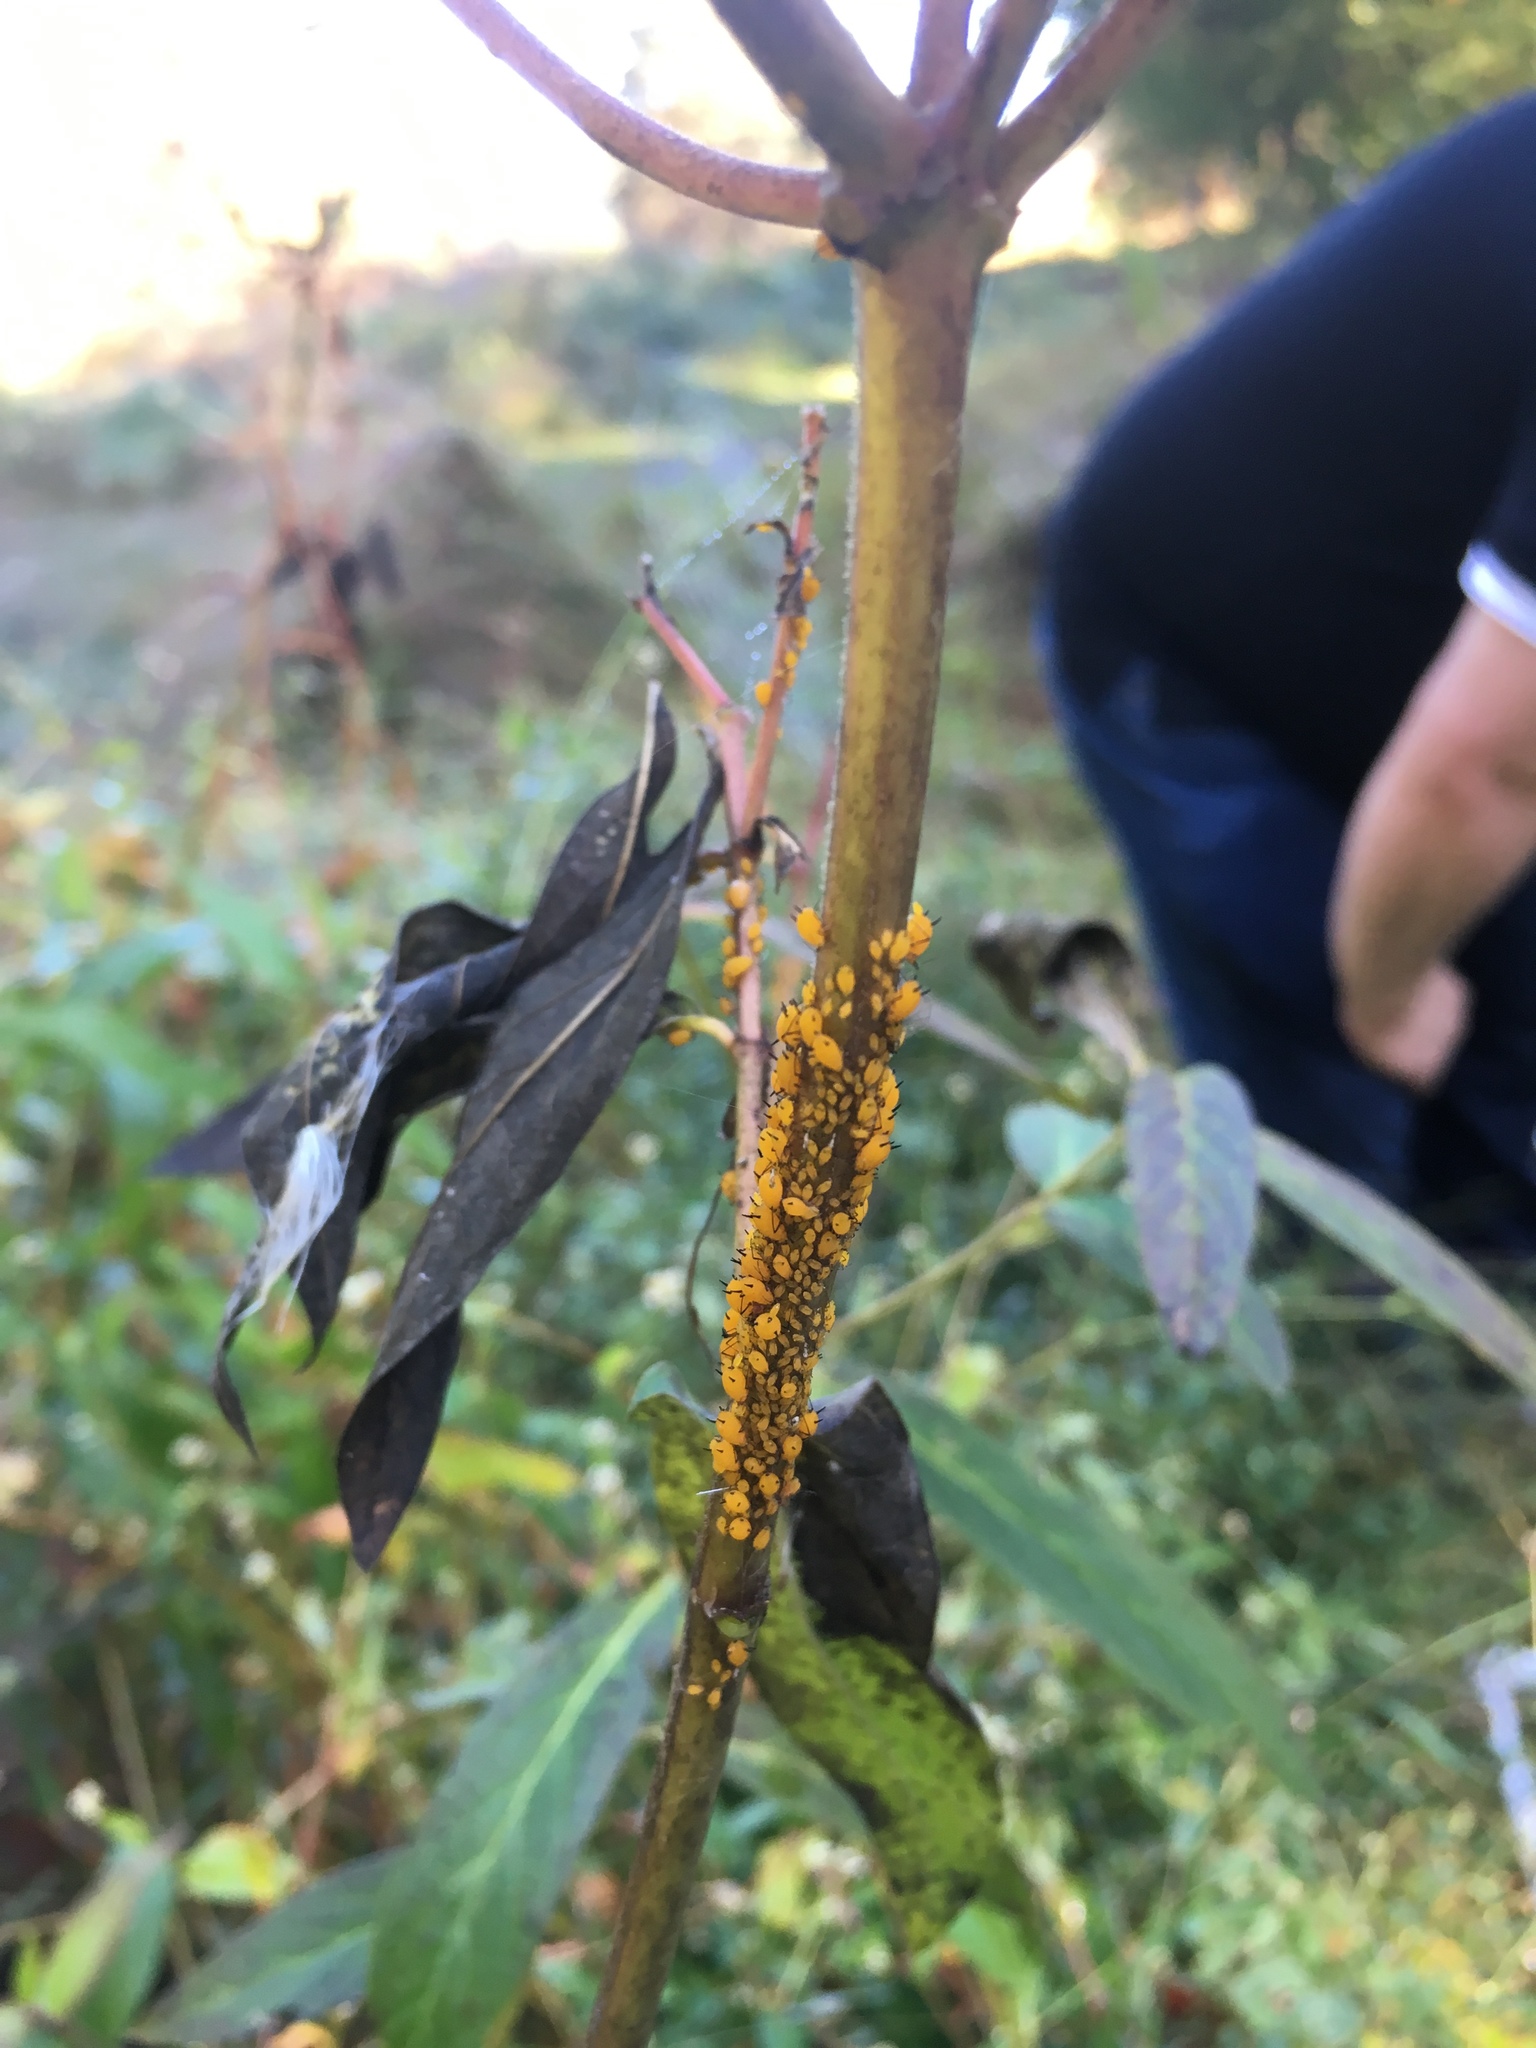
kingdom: Animalia
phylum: Arthropoda
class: Insecta
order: Hemiptera
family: Aphididae
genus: Aphis
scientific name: Aphis nerii
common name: Oleander aphid
